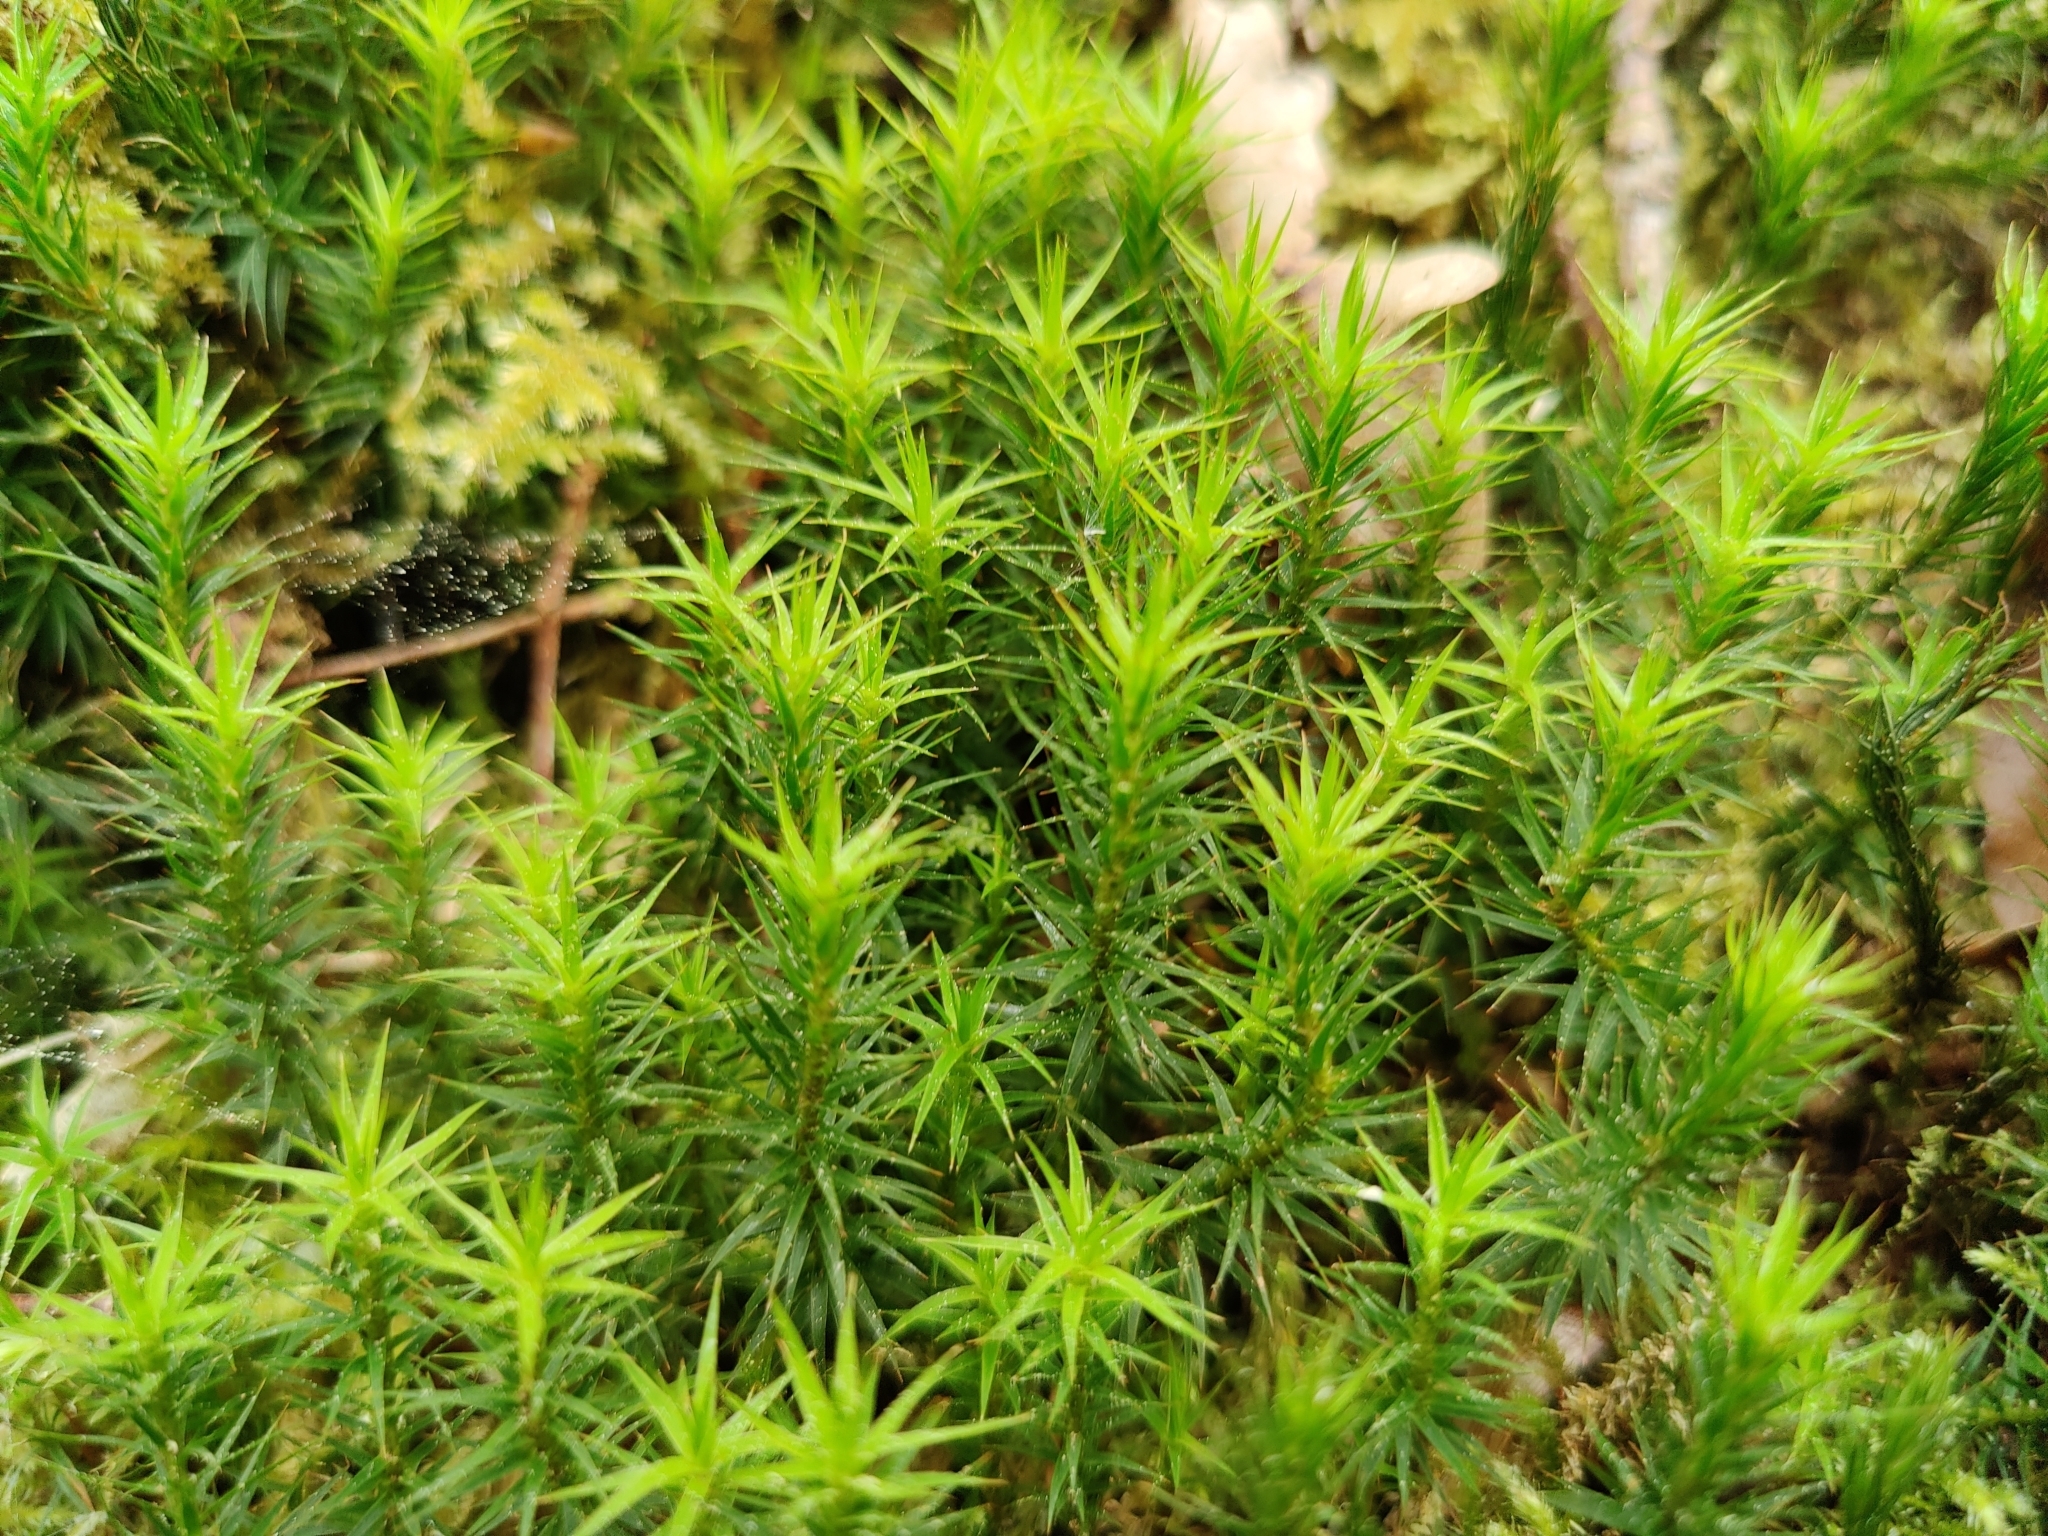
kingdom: Plantae
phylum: Bryophyta
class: Polytrichopsida
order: Polytrichales
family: Polytrichaceae
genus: Polytrichum
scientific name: Polytrichum formosum
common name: Bank haircap moss
